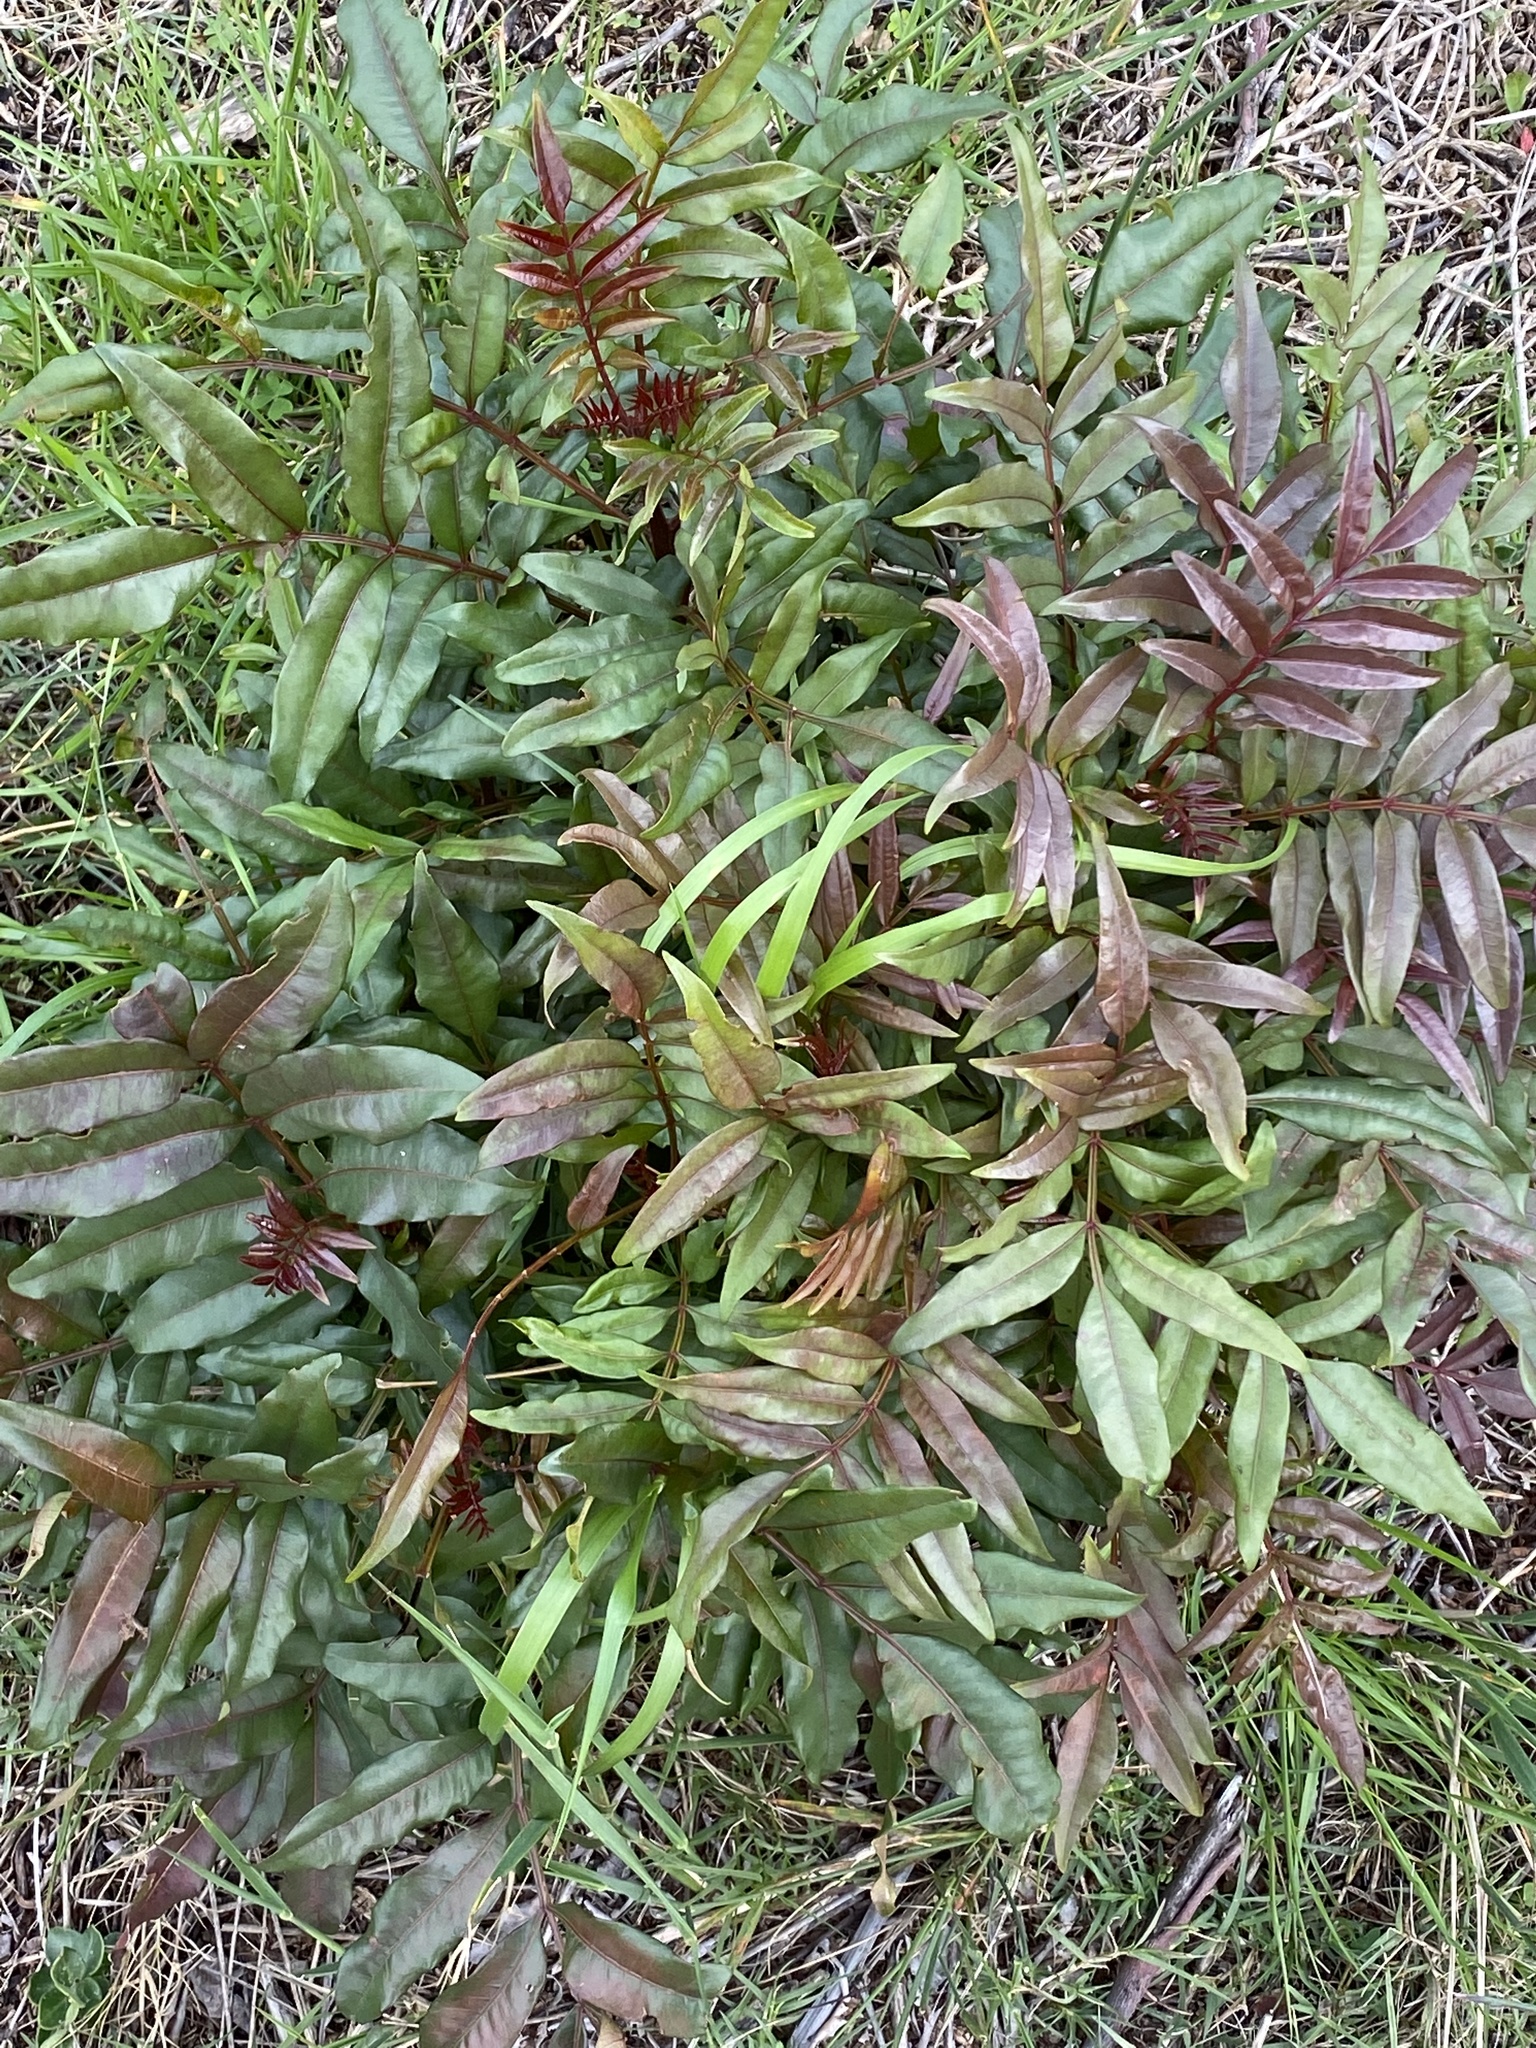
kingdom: Plantae
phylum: Tracheophyta
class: Magnoliopsida
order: Sapindales
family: Anacardiaceae
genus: Harpephyllum
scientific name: Harpephyllum caffrum
